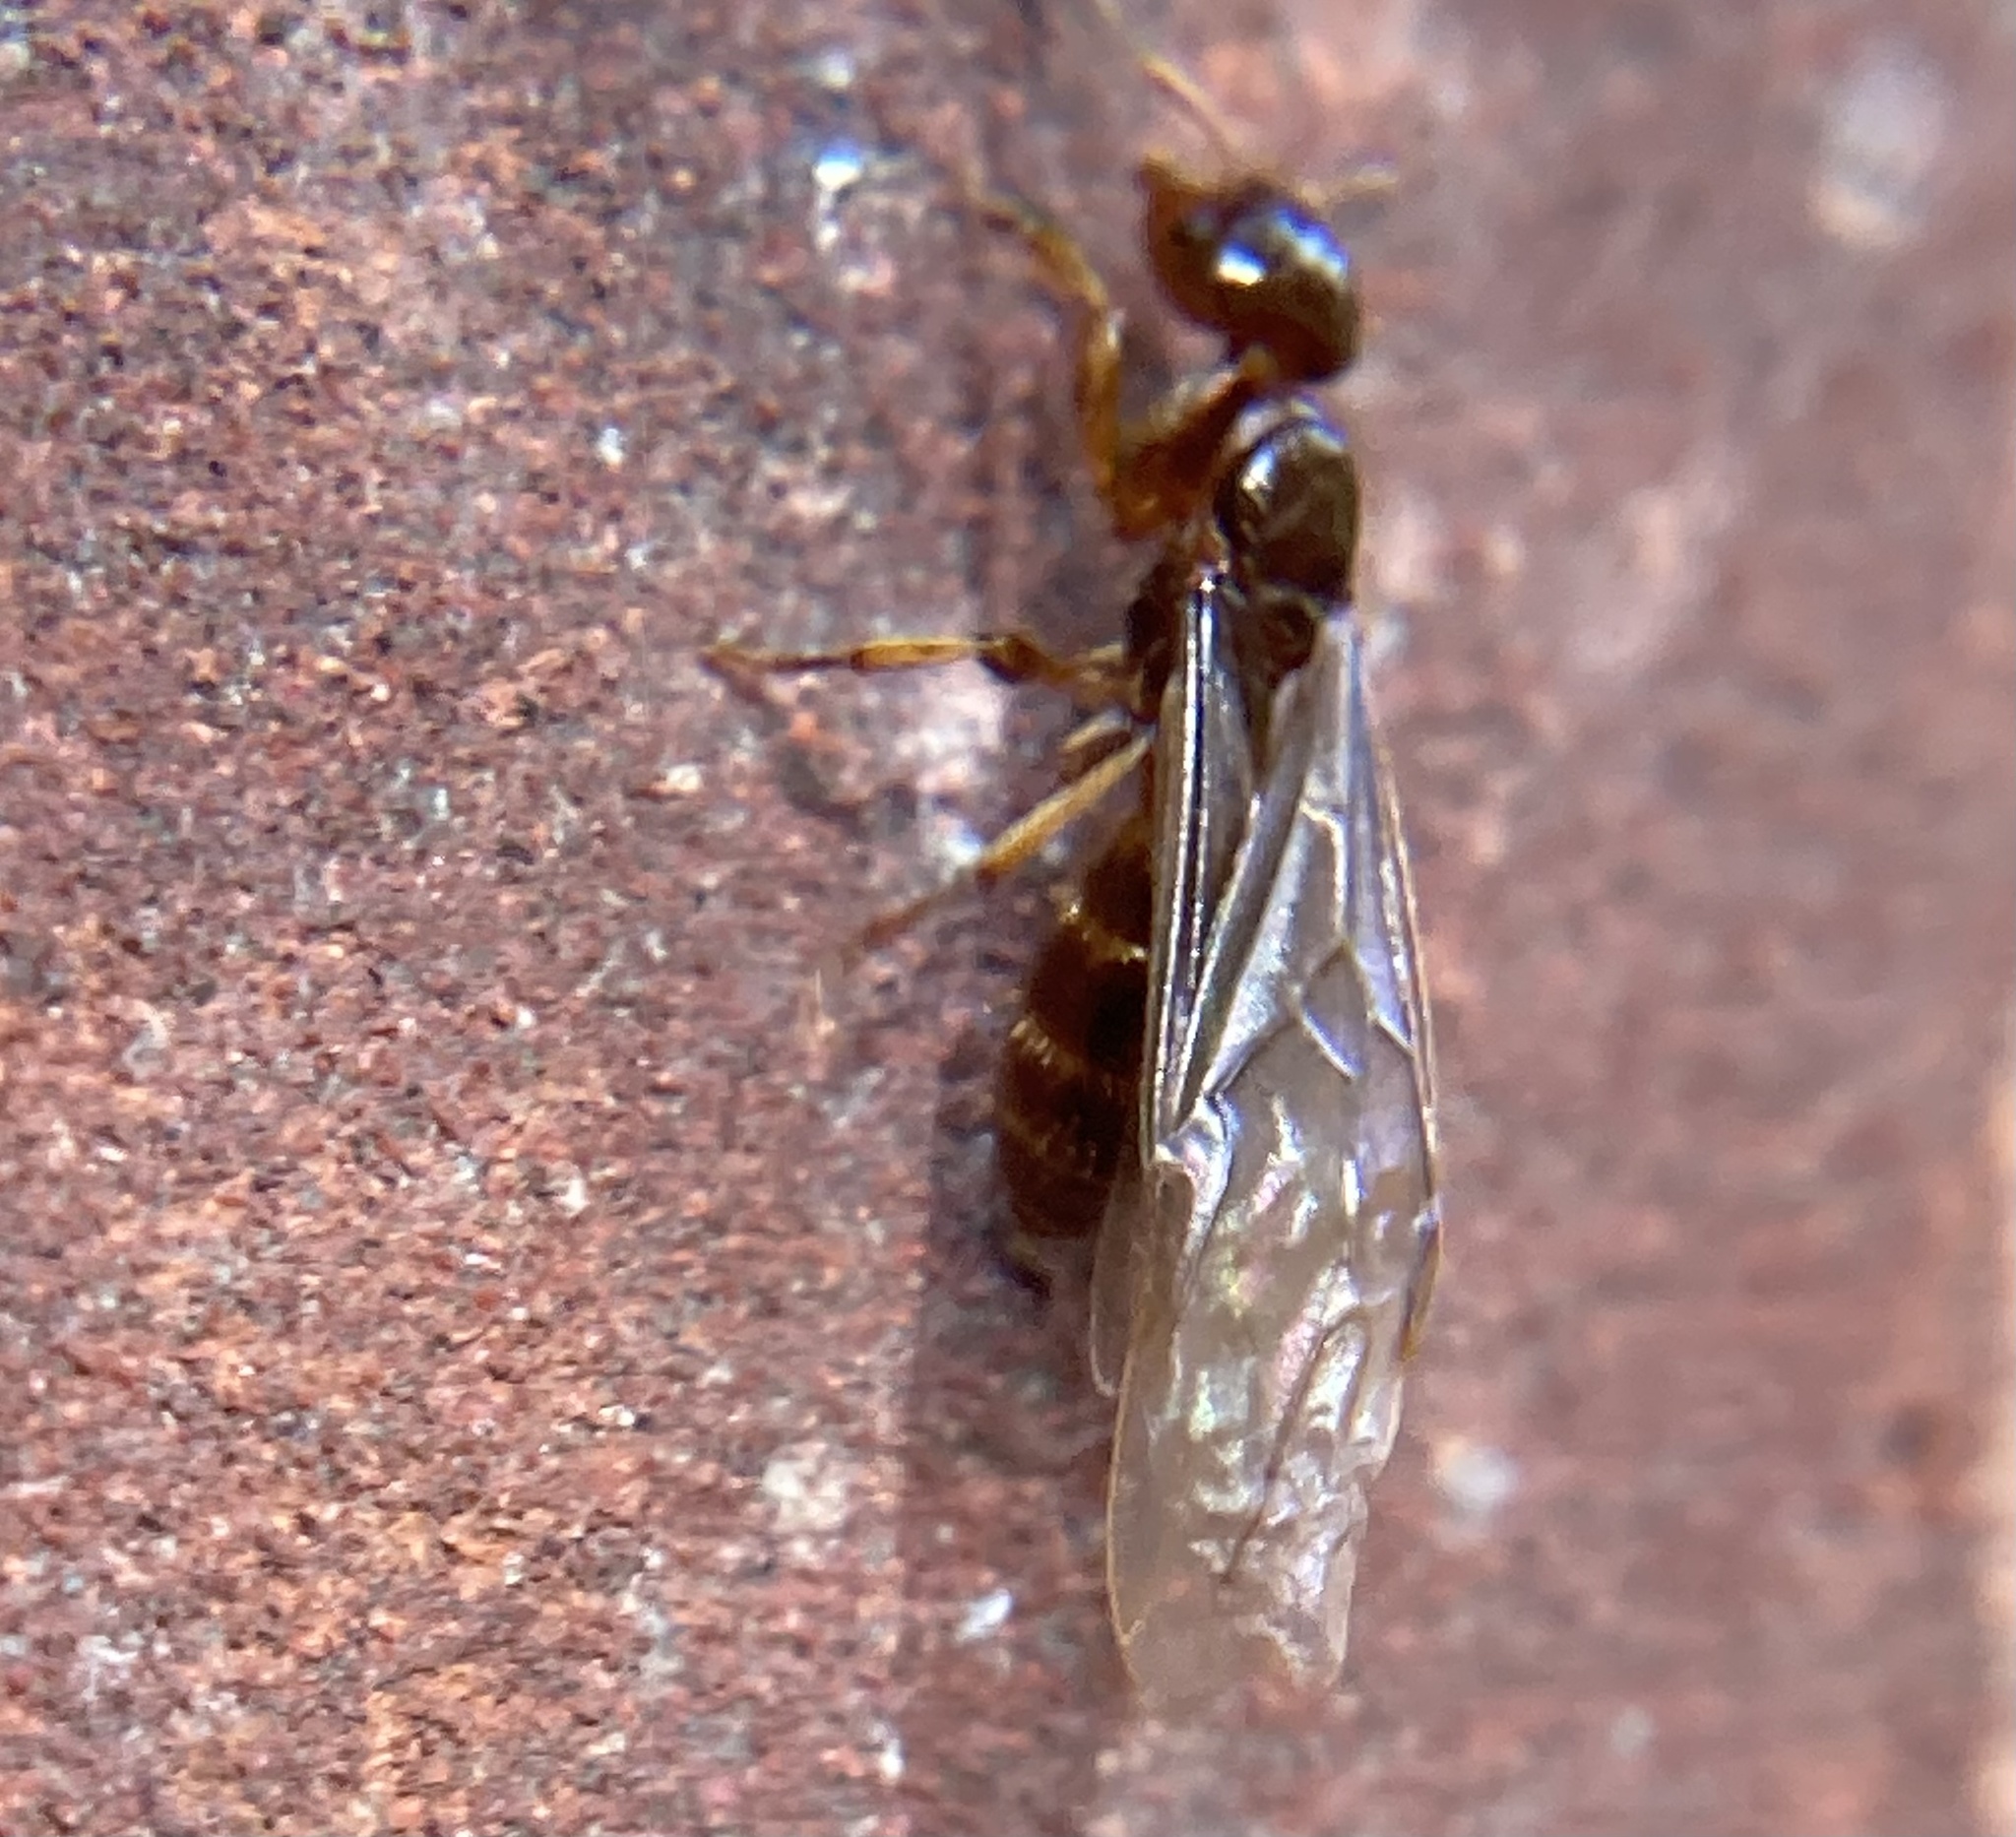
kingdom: Animalia
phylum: Arthropoda
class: Insecta
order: Hymenoptera
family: Formicidae
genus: Lasius
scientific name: Lasius claviger
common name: Common citronella ant
